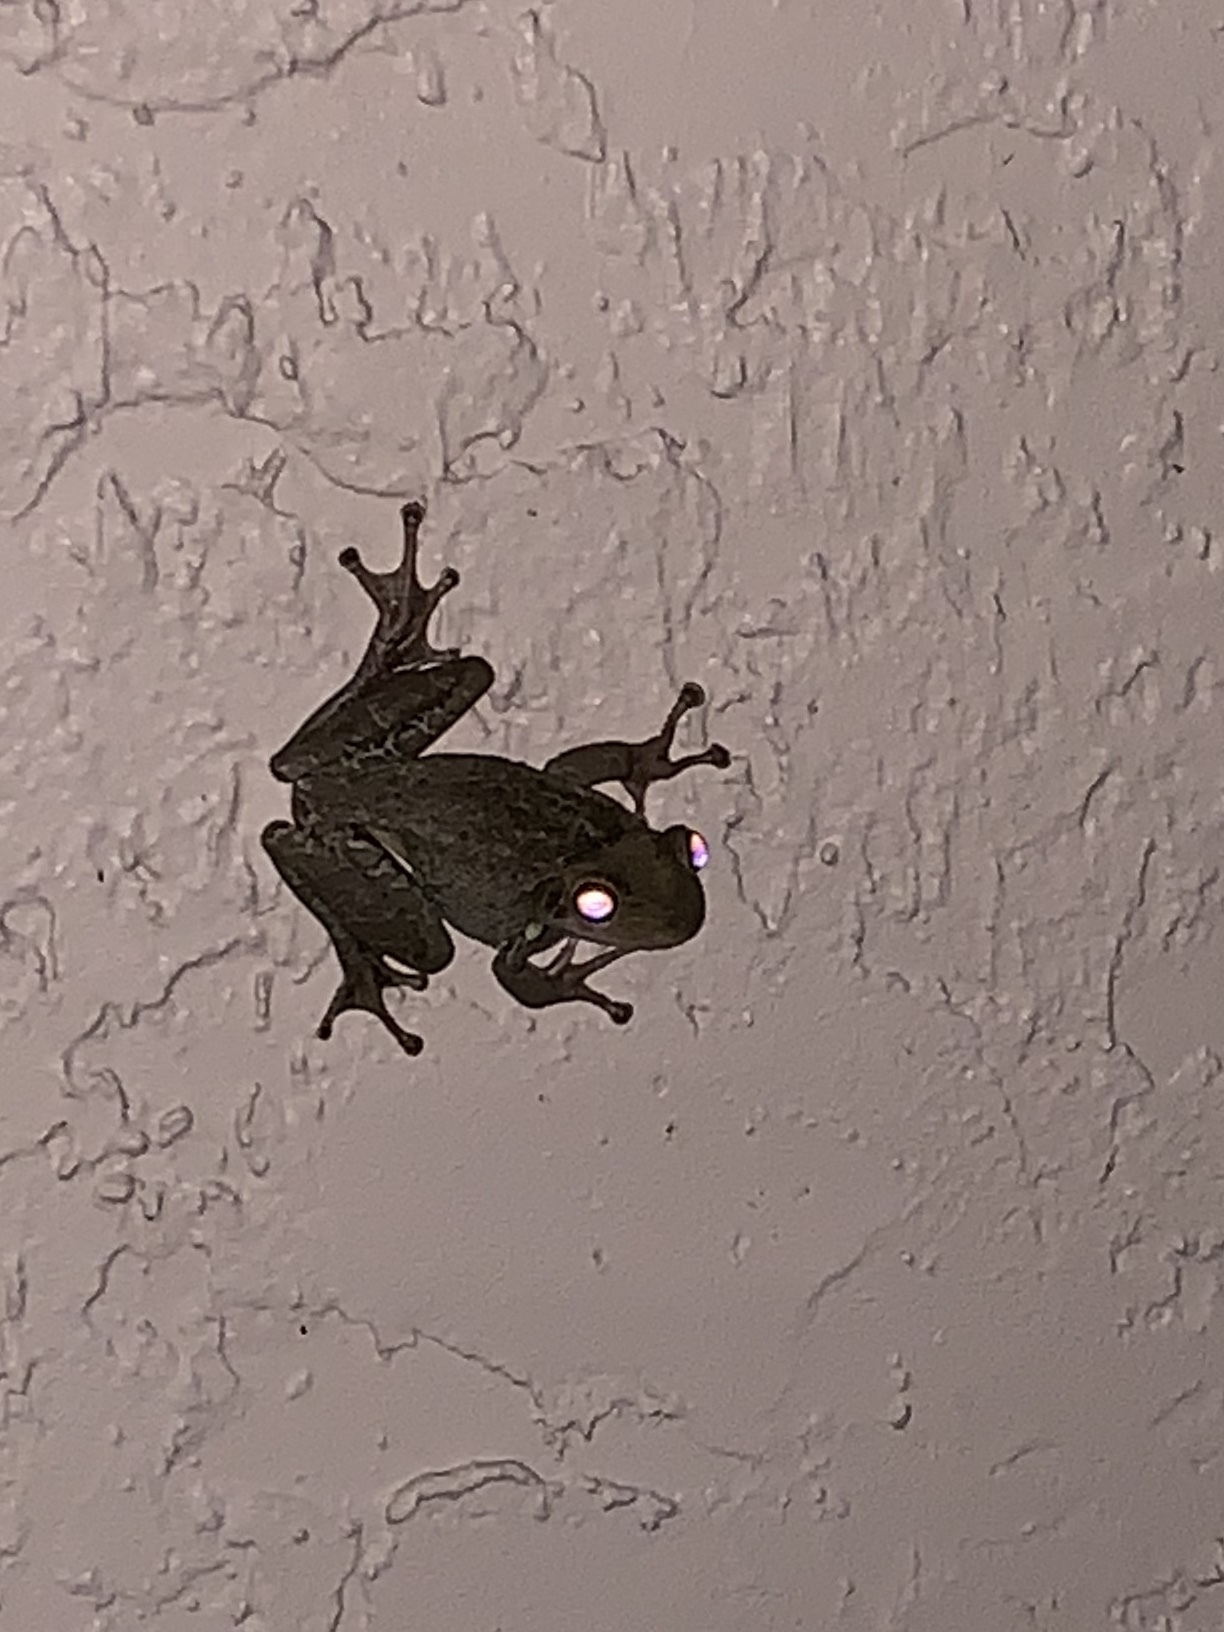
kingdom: Animalia
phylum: Chordata
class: Amphibia
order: Anura
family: Hylidae
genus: Osteopilus
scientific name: Osteopilus septentrionalis
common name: Cuban treefrog
